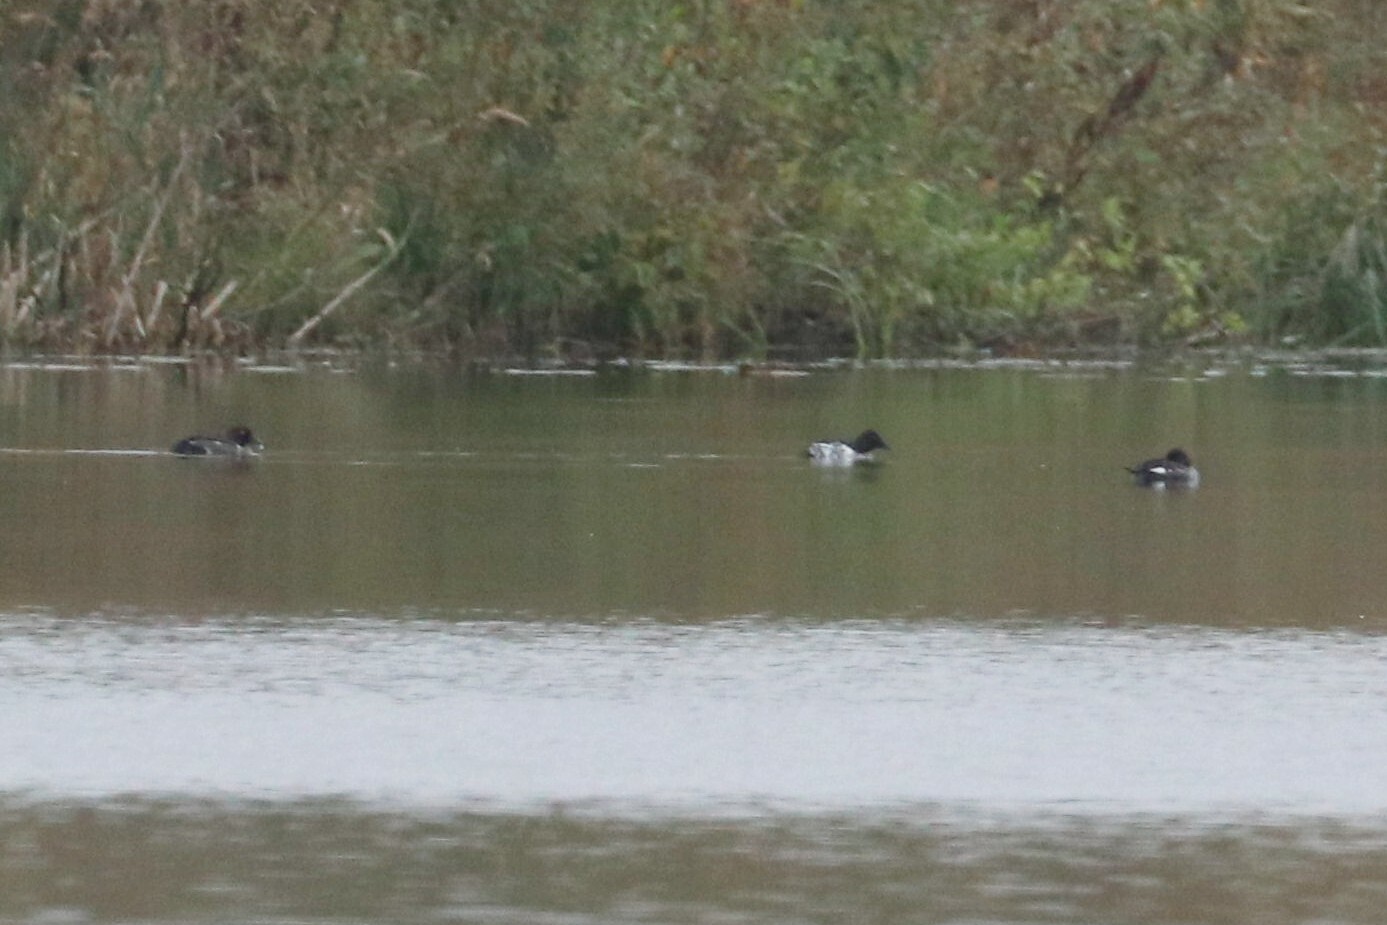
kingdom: Animalia
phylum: Chordata
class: Aves
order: Anseriformes
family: Anatidae
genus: Bucephala
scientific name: Bucephala clangula
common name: Common goldeneye
